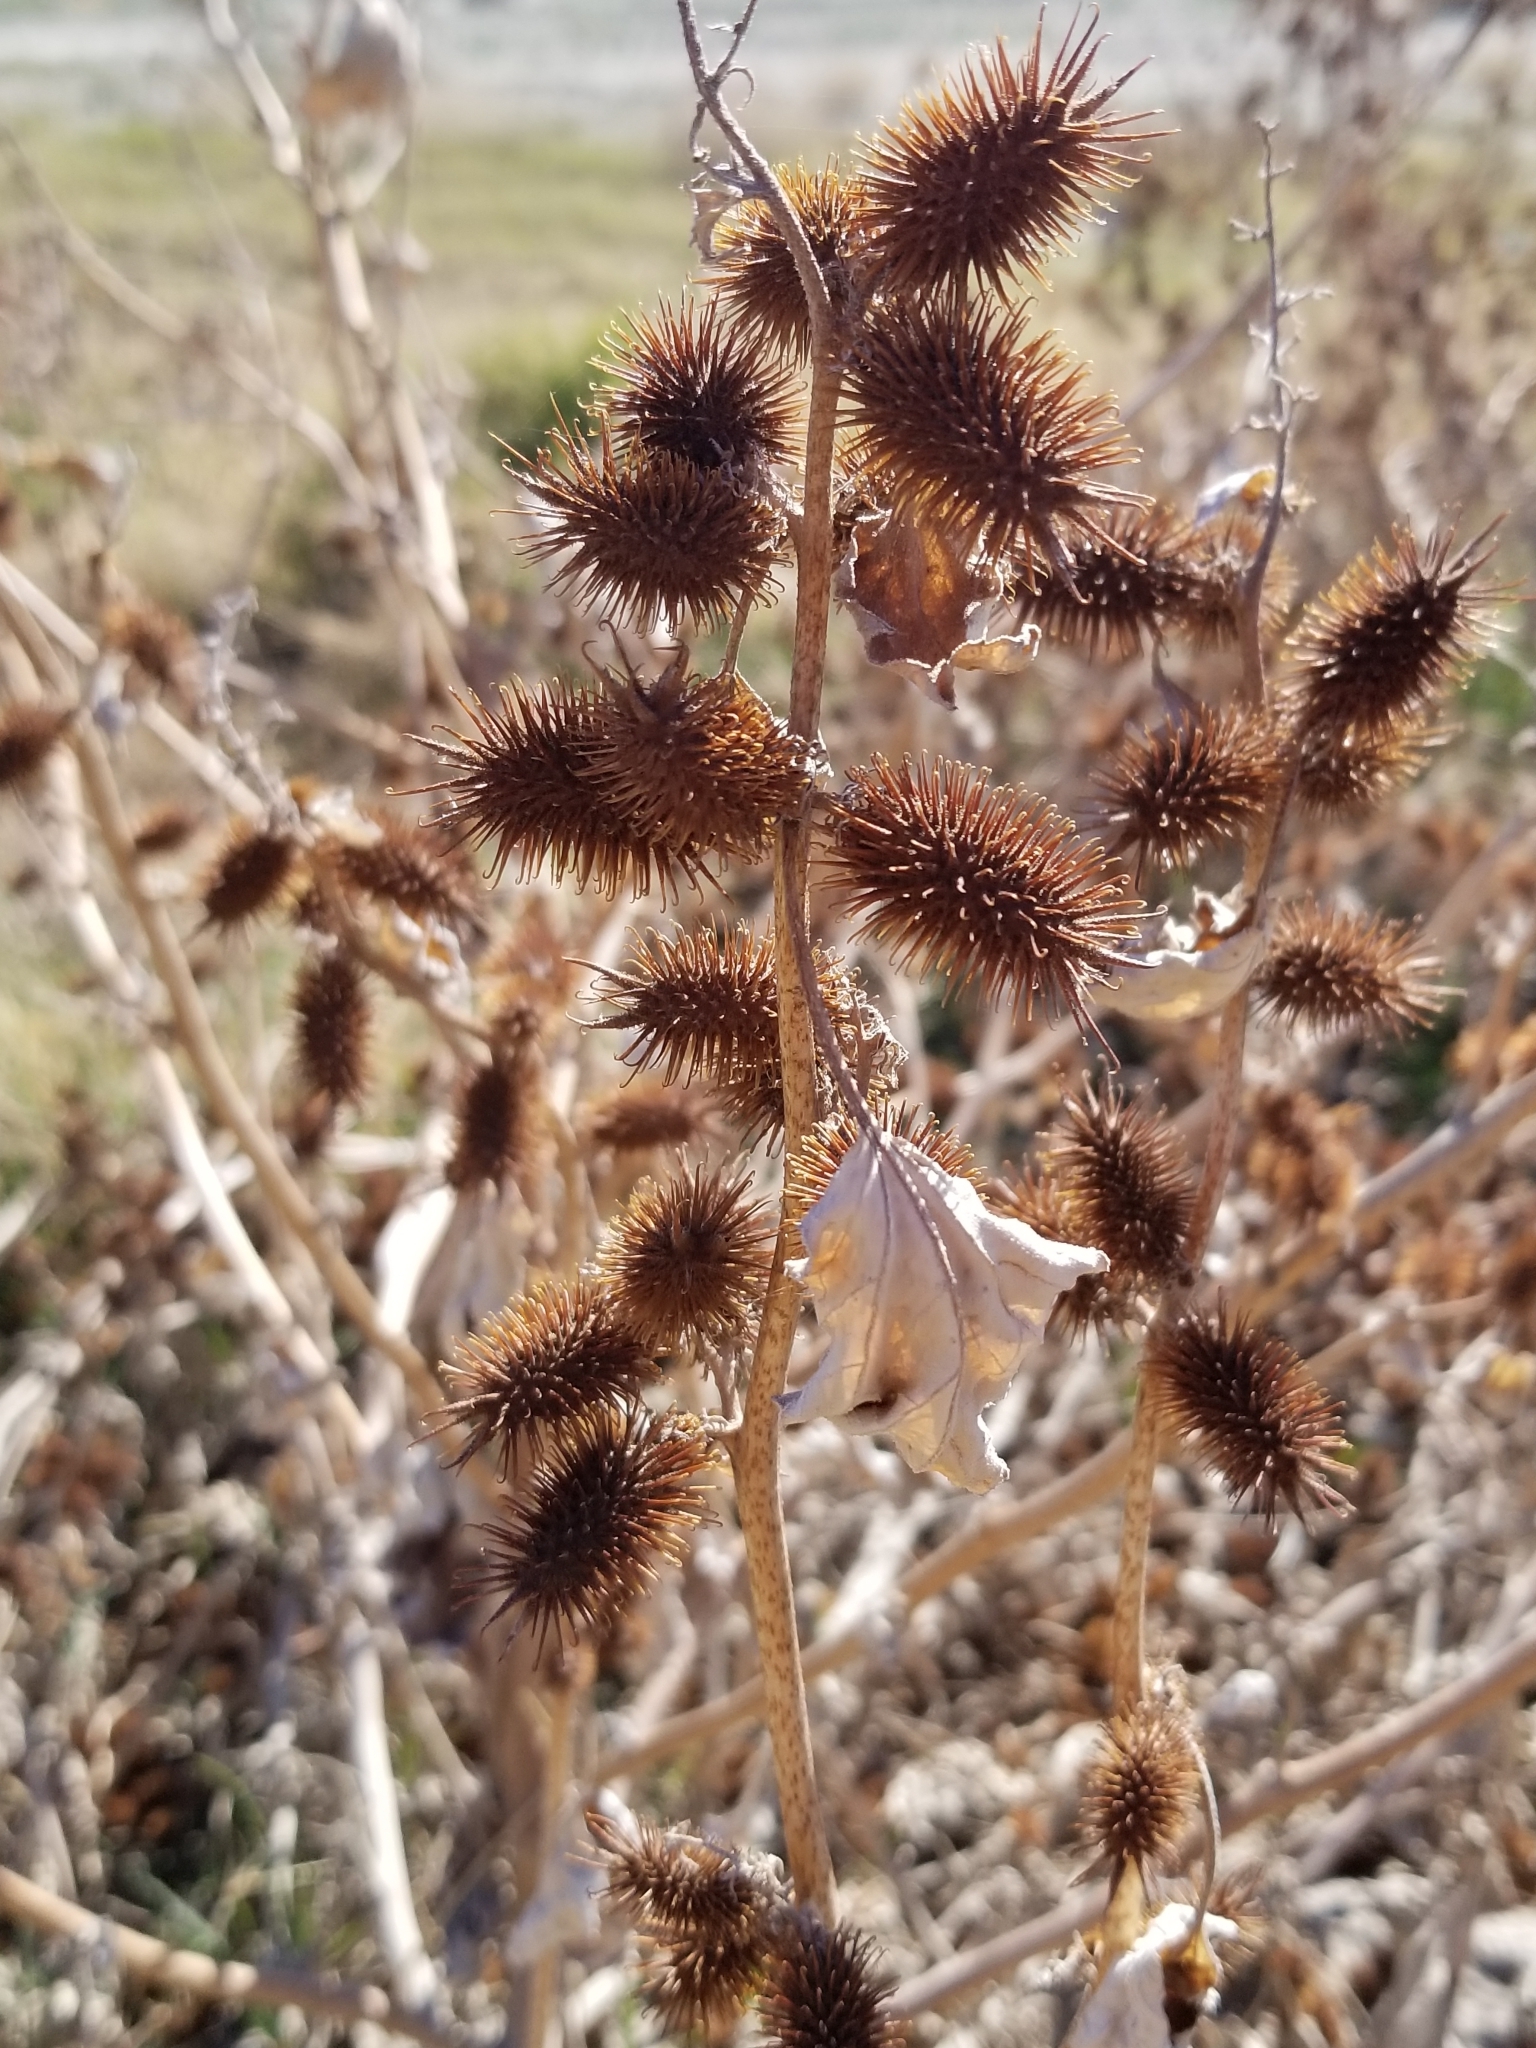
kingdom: Plantae
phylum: Tracheophyta
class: Magnoliopsida
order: Asterales
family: Asteraceae
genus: Xanthium
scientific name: Xanthium strumarium
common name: Rough cocklebur
